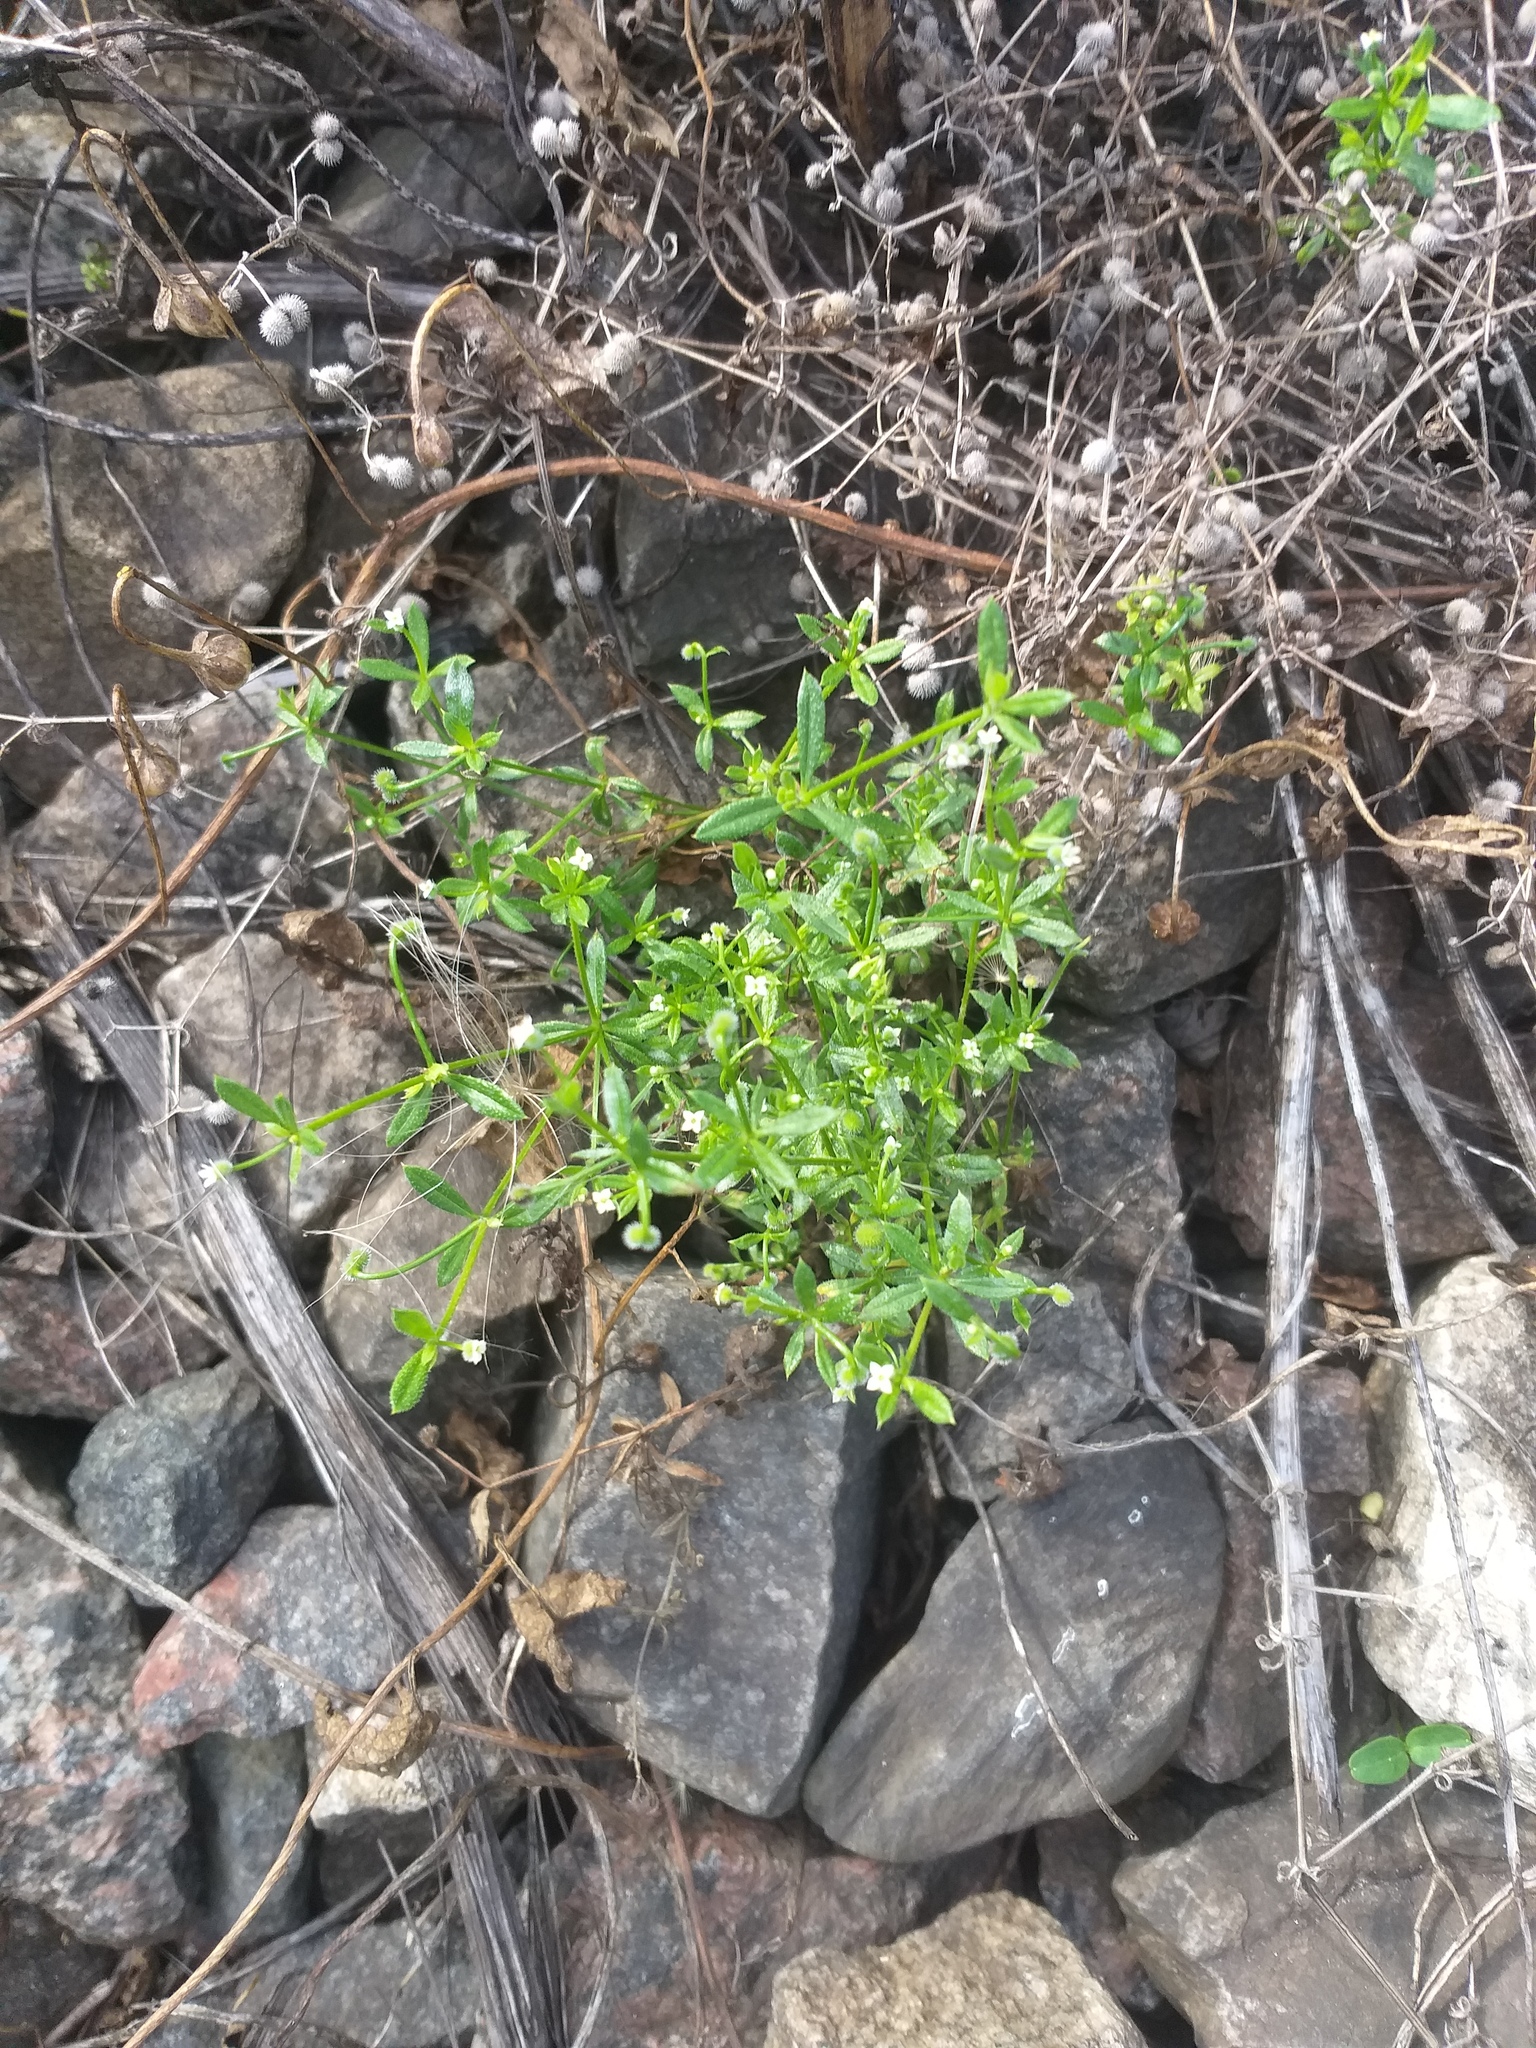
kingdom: Plantae
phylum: Tracheophyta
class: Magnoliopsida
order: Gentianales
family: Rubiaceae
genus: Galium
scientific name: Galium aparine
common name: Cleavers
